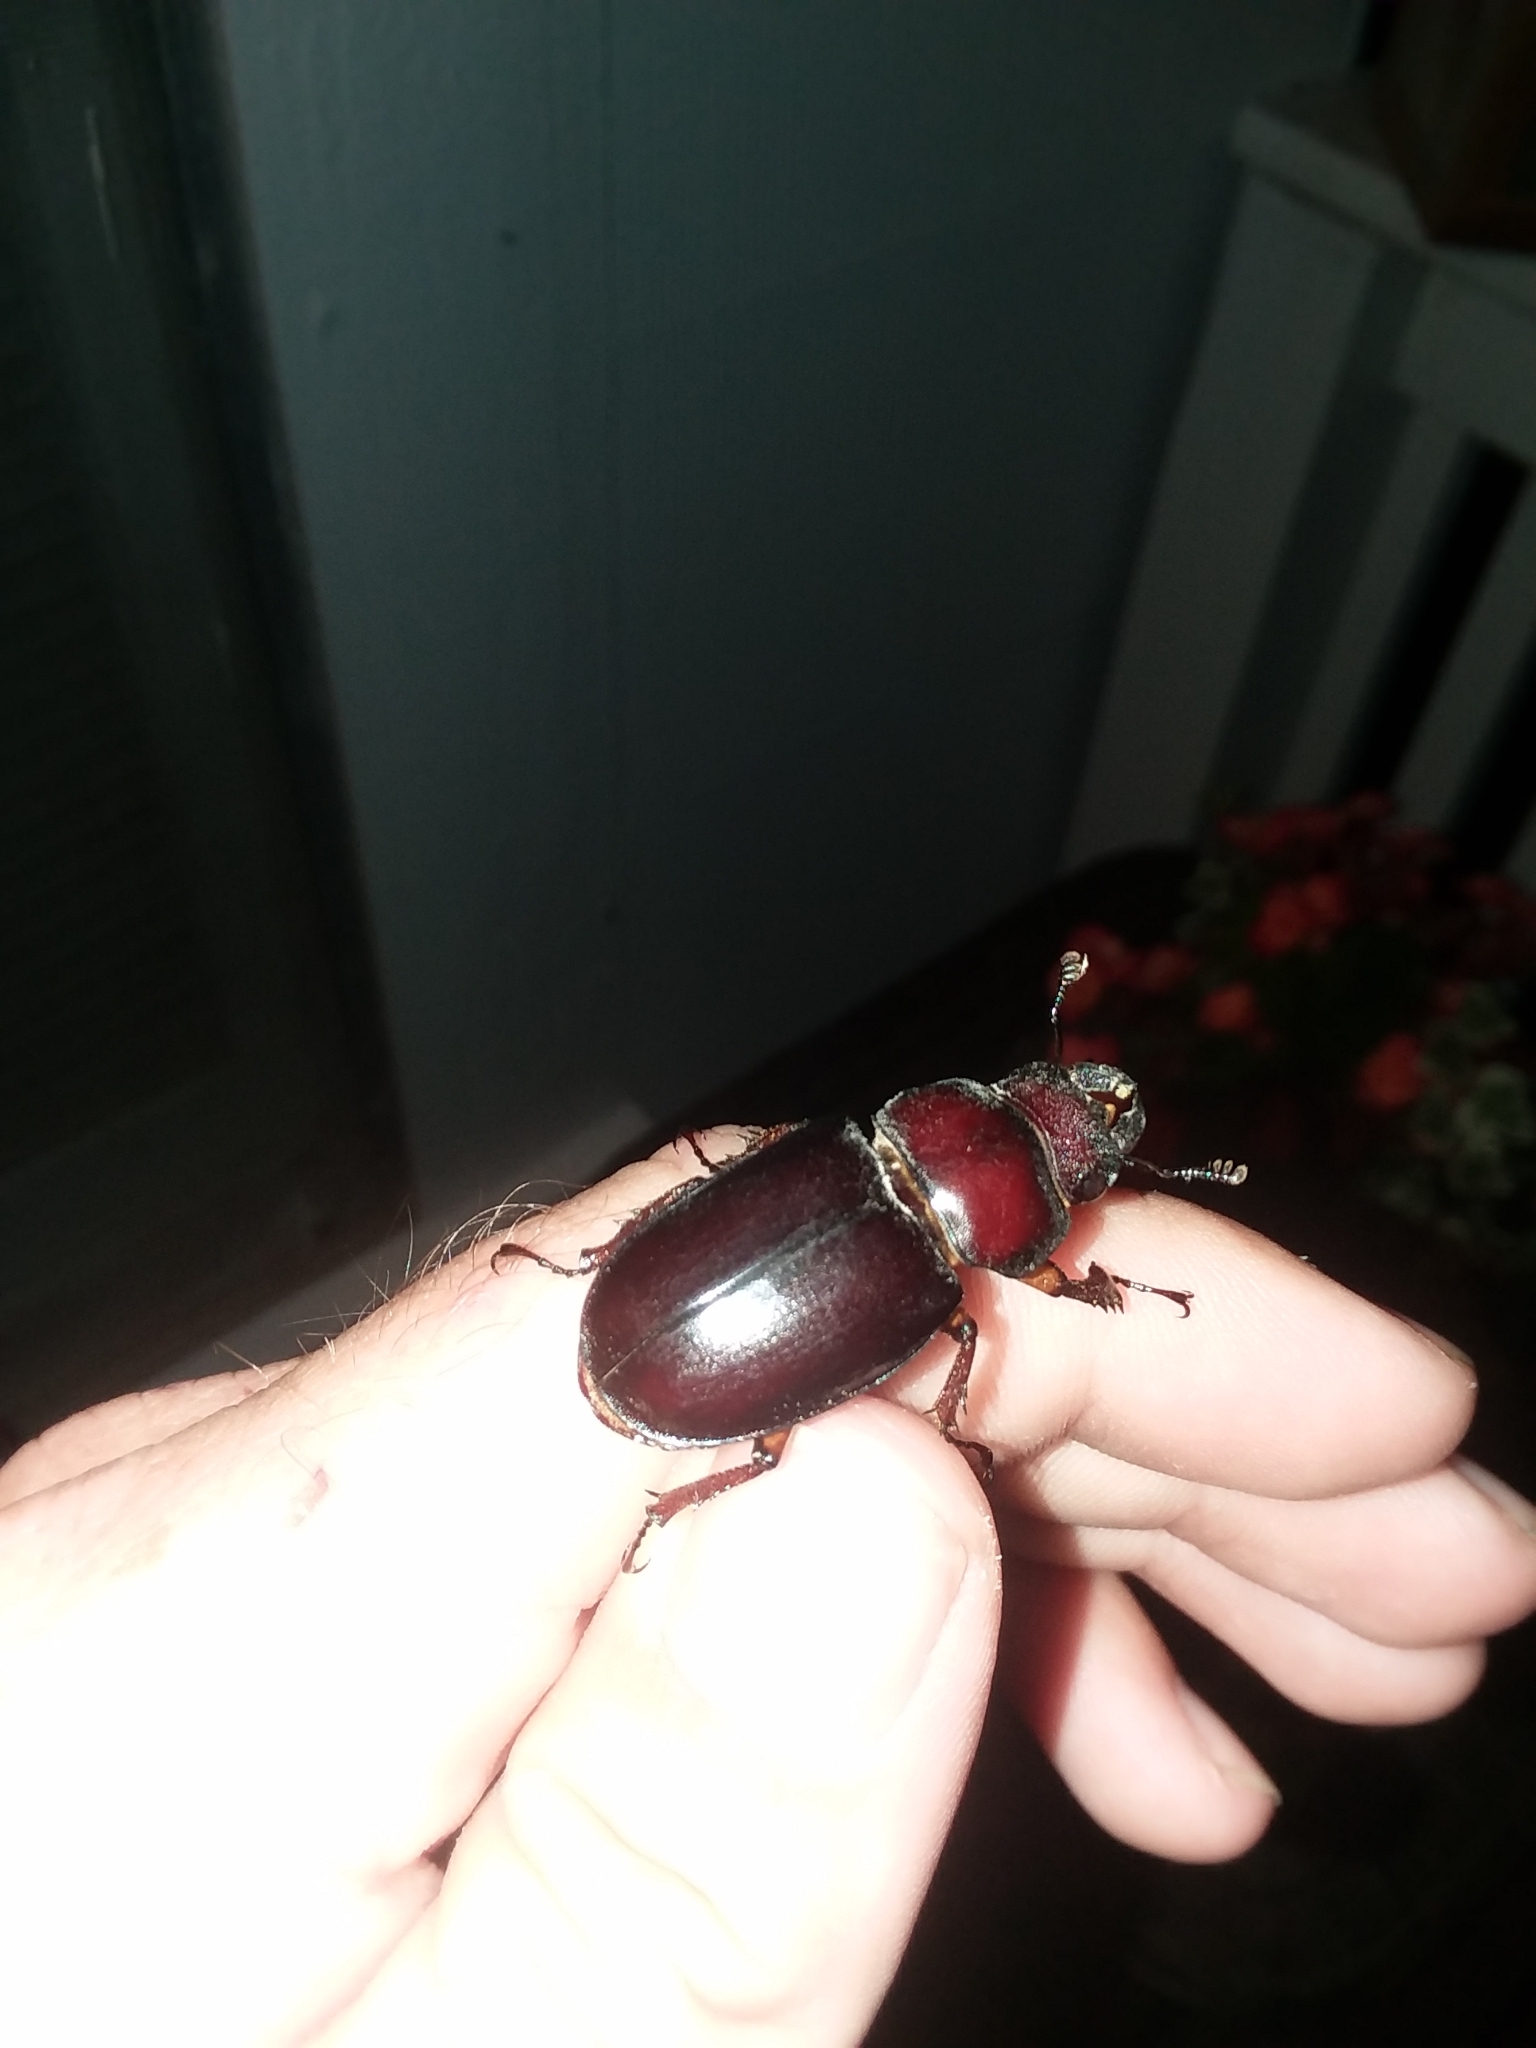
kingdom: Animalia
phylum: Arthropoda
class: Insecta
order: Coleoptera
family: Lucanidae
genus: Lucanus
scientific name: Lucanus capreolus
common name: Stag beetle
